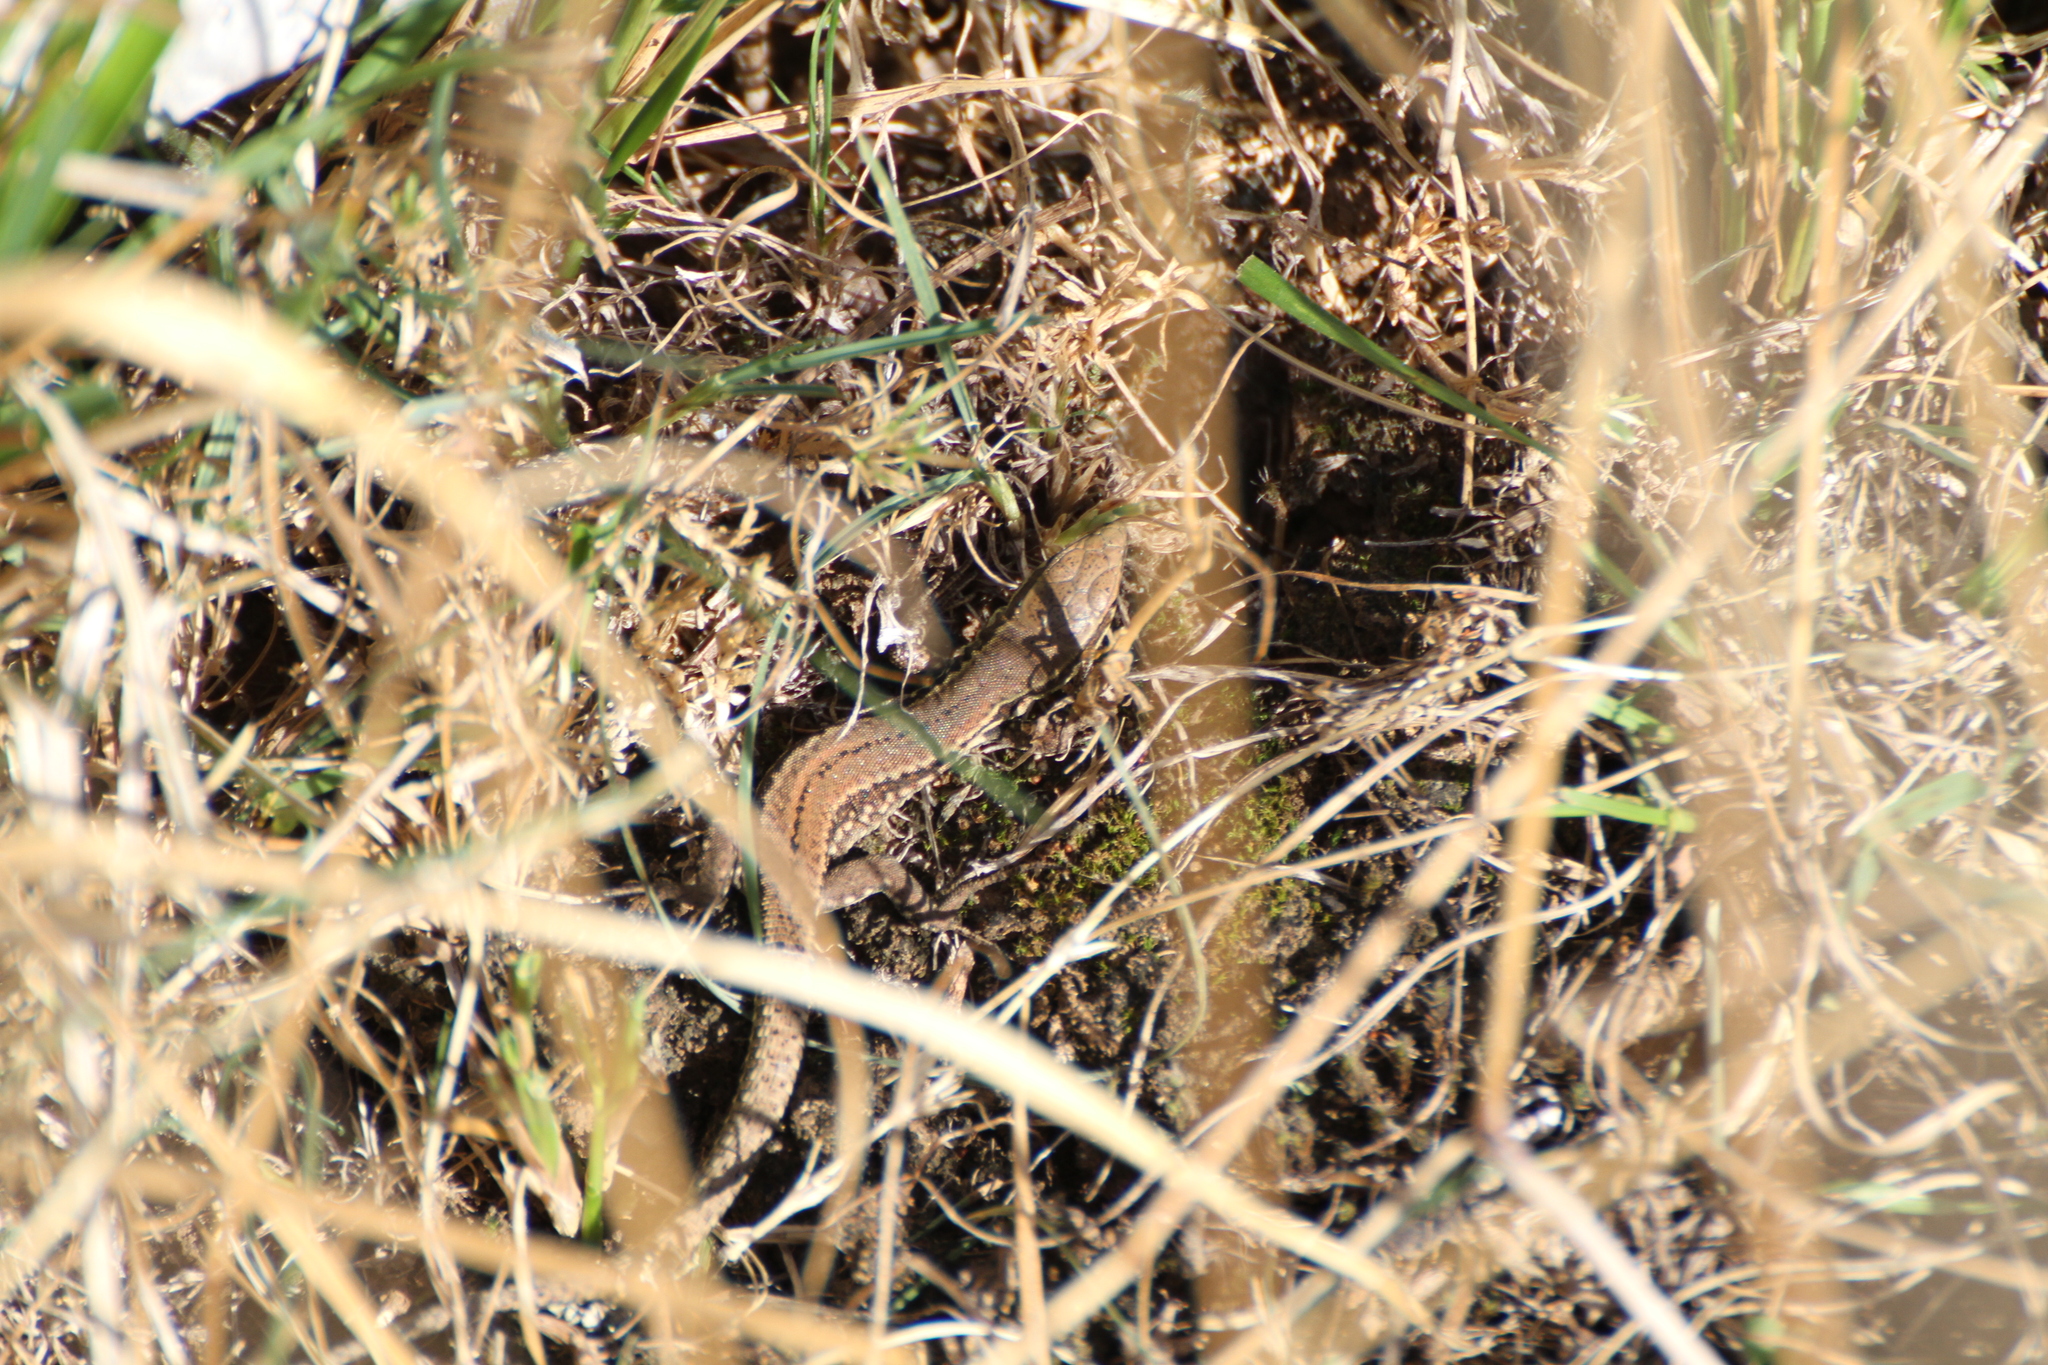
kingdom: Animalia
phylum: Chordata
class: Squamata
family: Lacertidae
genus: Podarcis
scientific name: Podarcis muralis
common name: Common wall lizard
